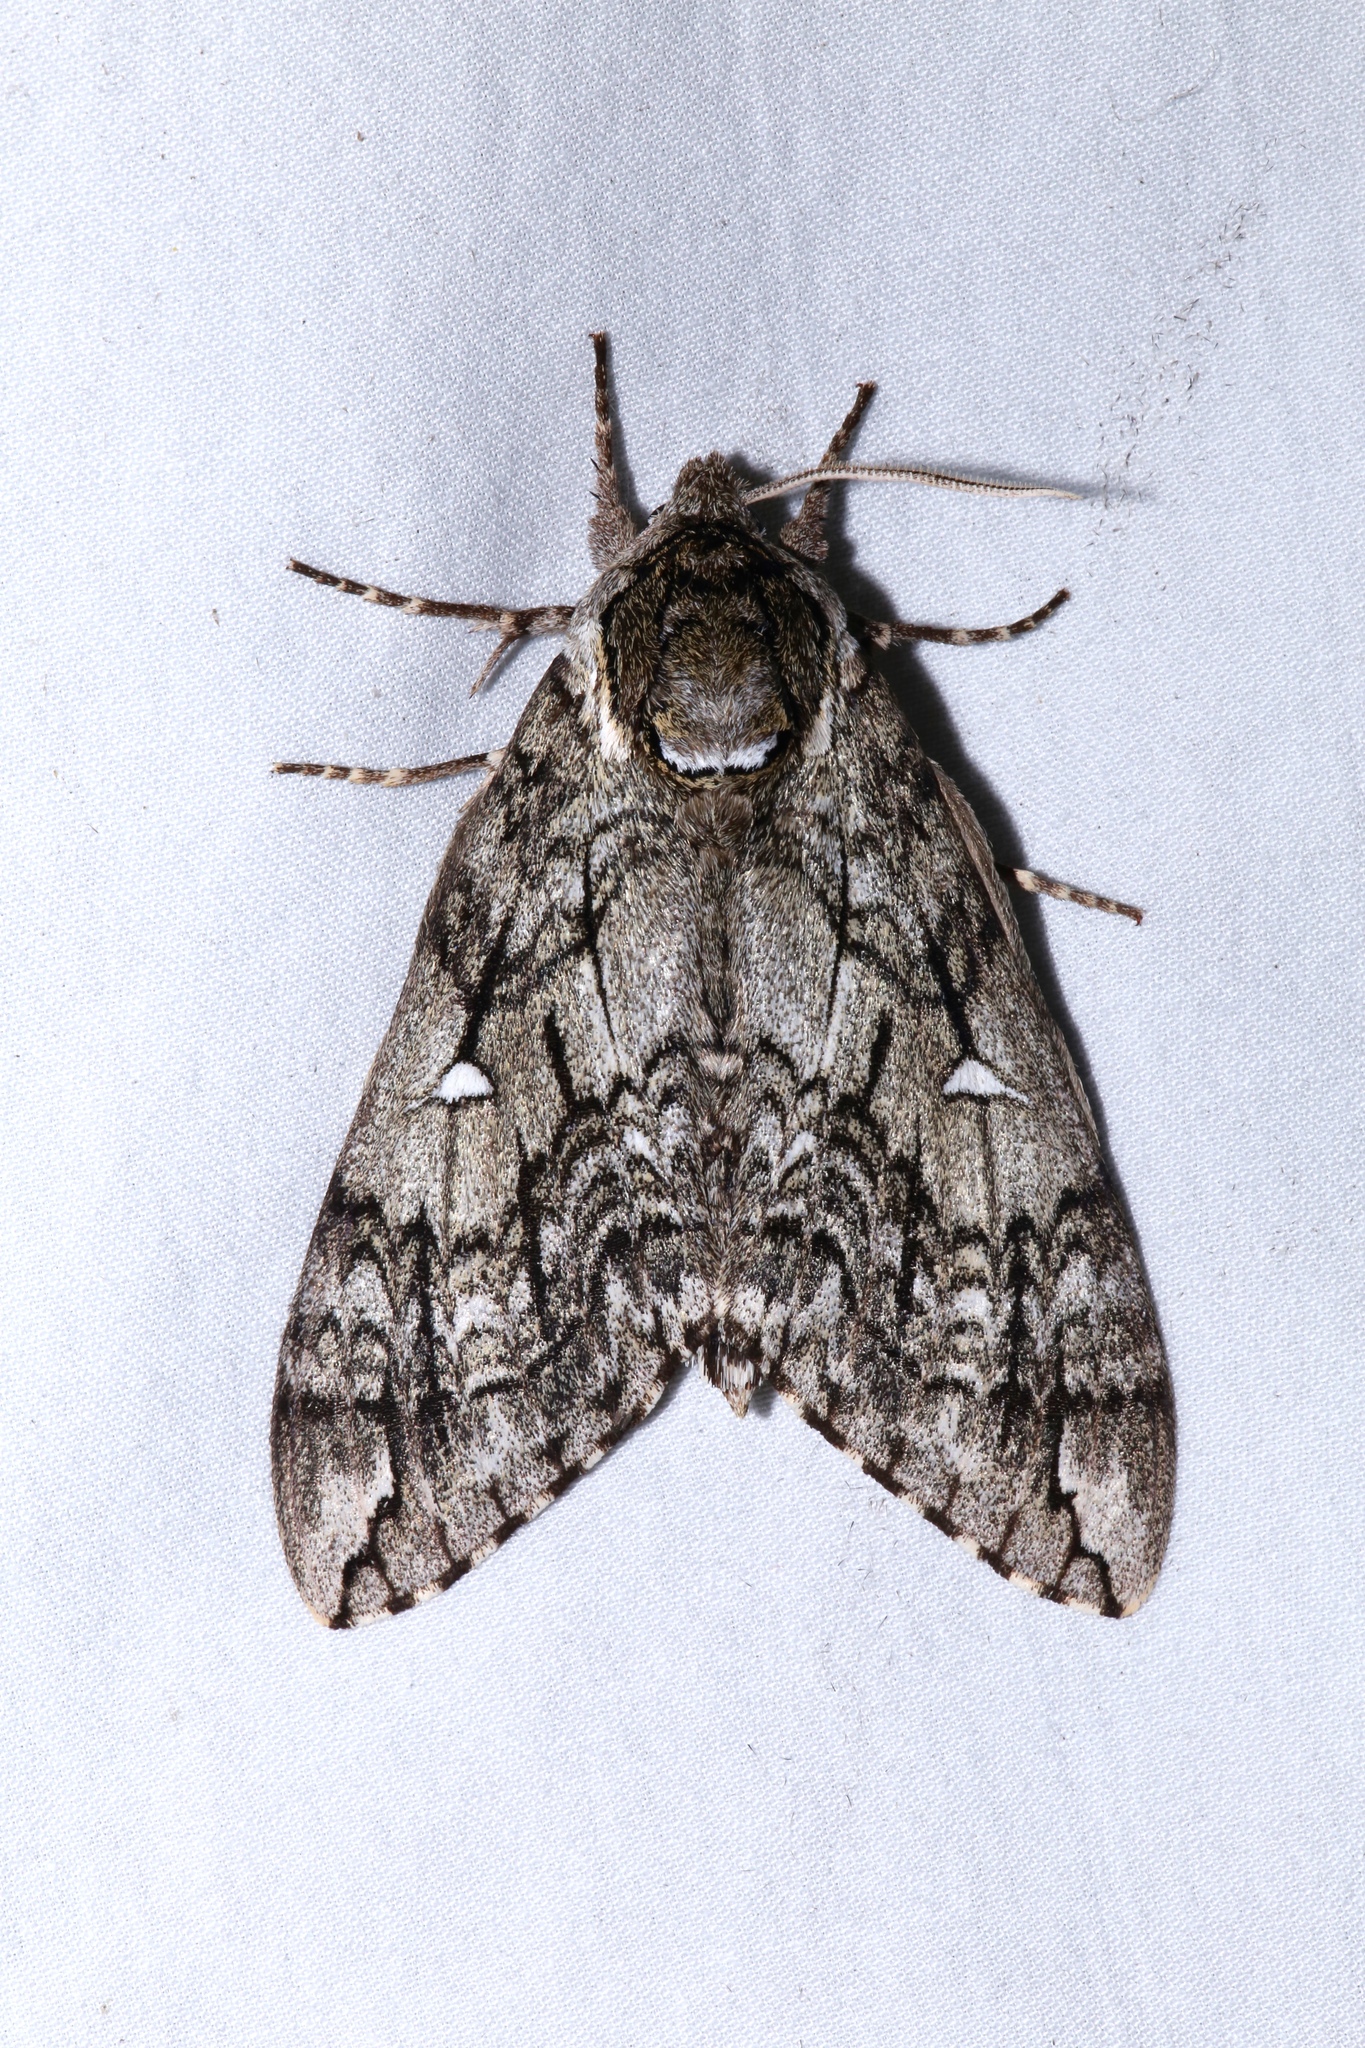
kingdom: Animalia
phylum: Arthropoda
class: Insecta
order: Lepidoptera
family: Sphingidae
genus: Ceratomia
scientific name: Ceratomia undulosa
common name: Waved sphinx
